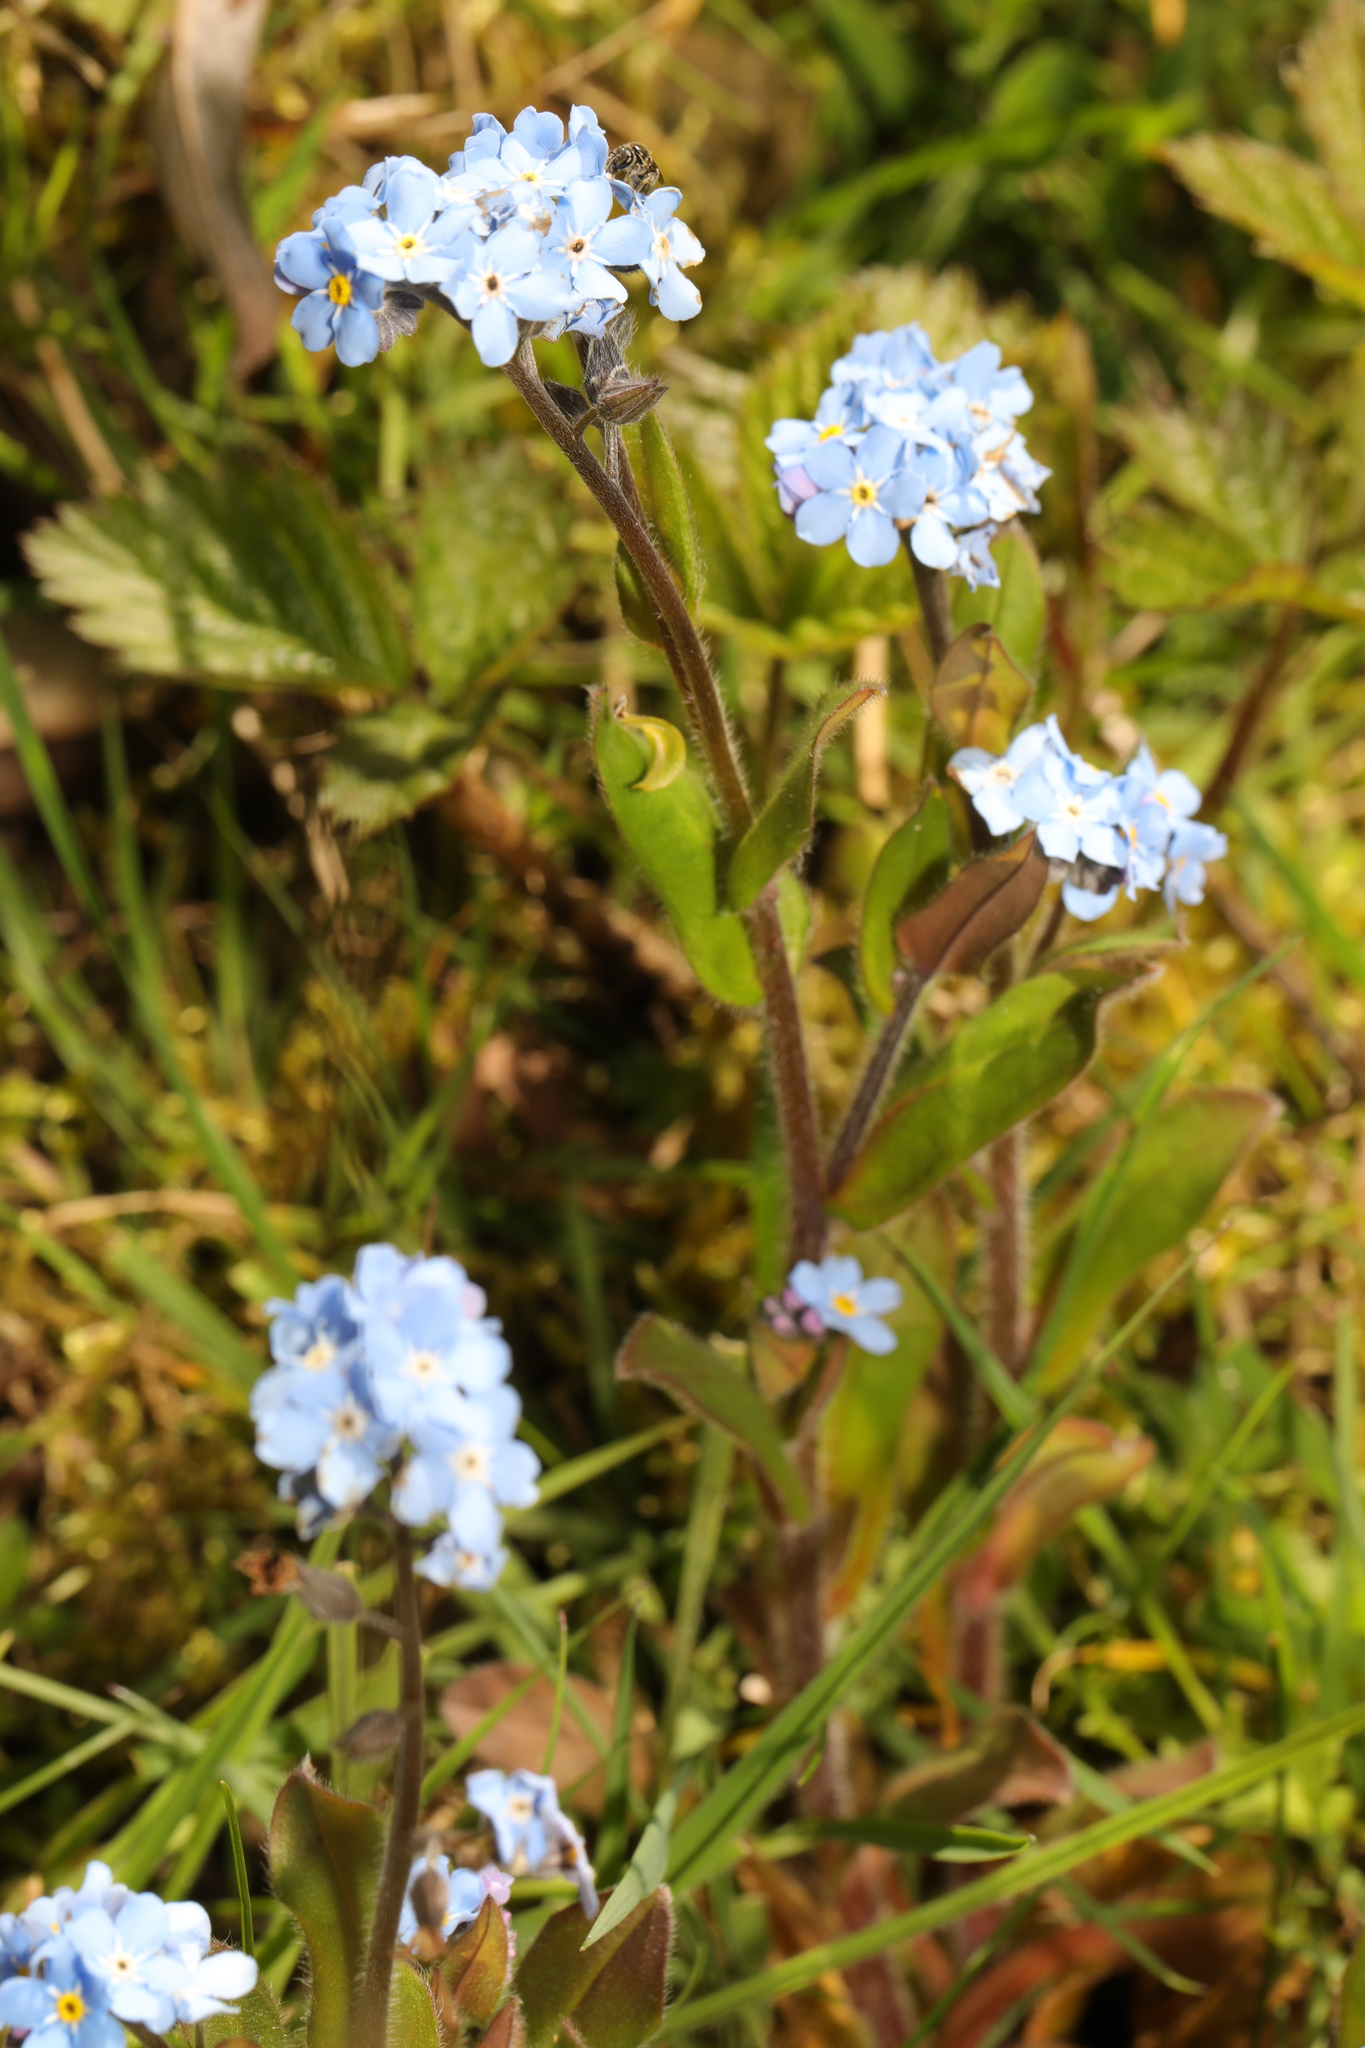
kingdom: Plantae
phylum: Tracheophyta
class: Magnoliopsida
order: Boraginales
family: Boraginaceae
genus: Myosotis
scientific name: Myosotis sylvatica
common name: Wood forget-me-not
